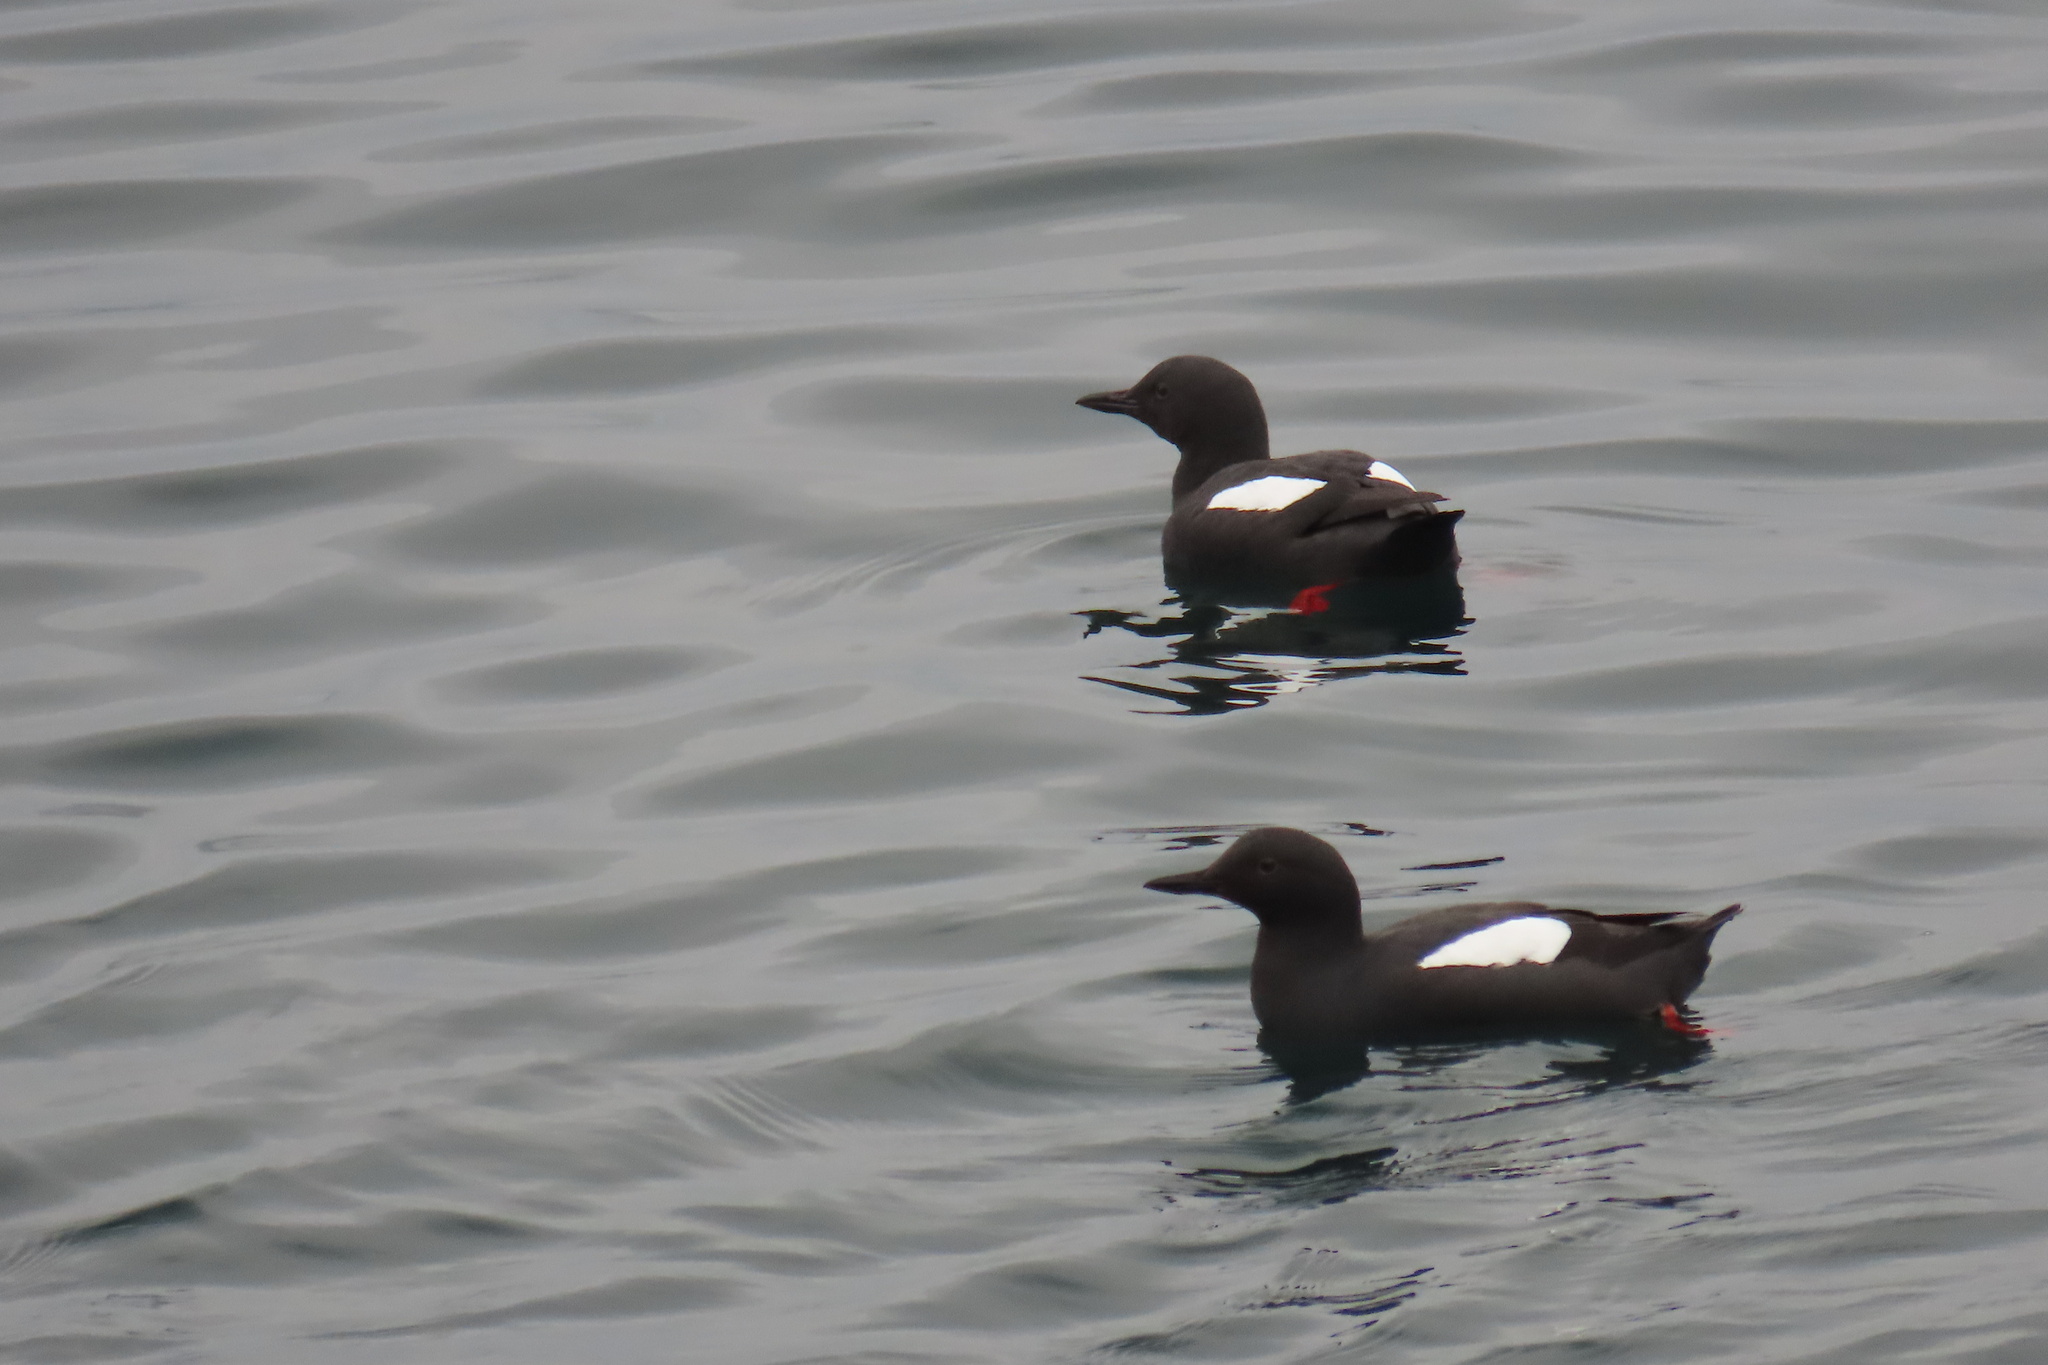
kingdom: Animalia
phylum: Chordata
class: Aves
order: Charadriiformes
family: Alcidae
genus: Cepphus
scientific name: Cepphus columba
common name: Pigeon guillemot
